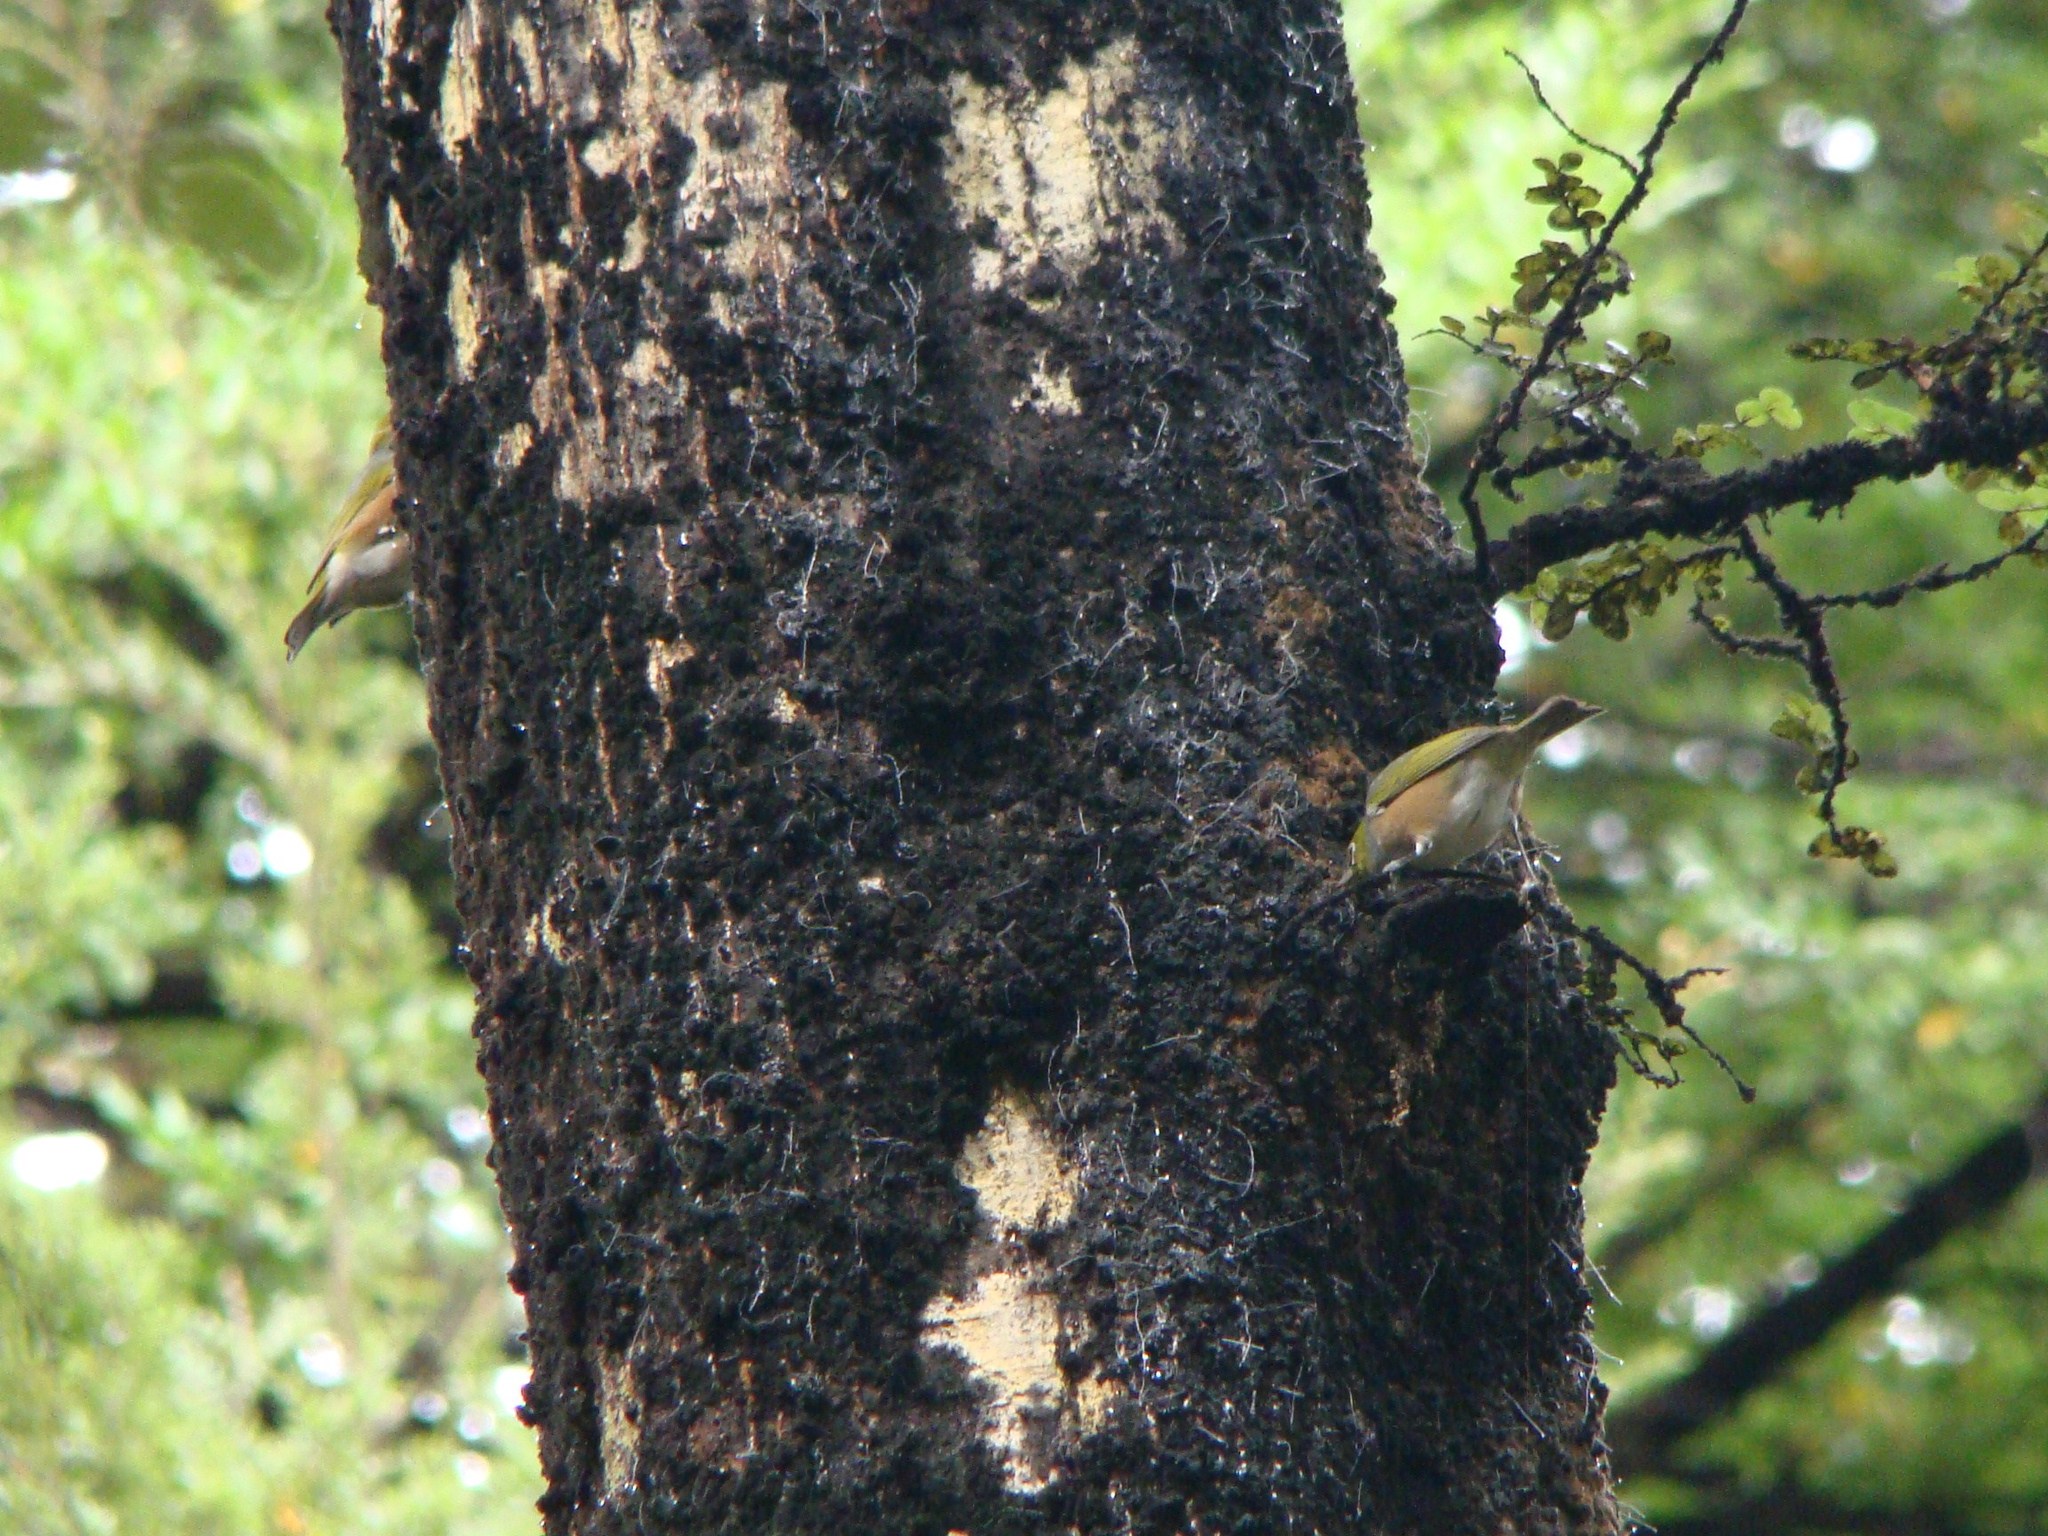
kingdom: Animalia
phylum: Chordata
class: Aves
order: Passeriformes
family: Zosteropidae
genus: Zosterops
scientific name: Zosterops lateralis
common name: Silvereye
